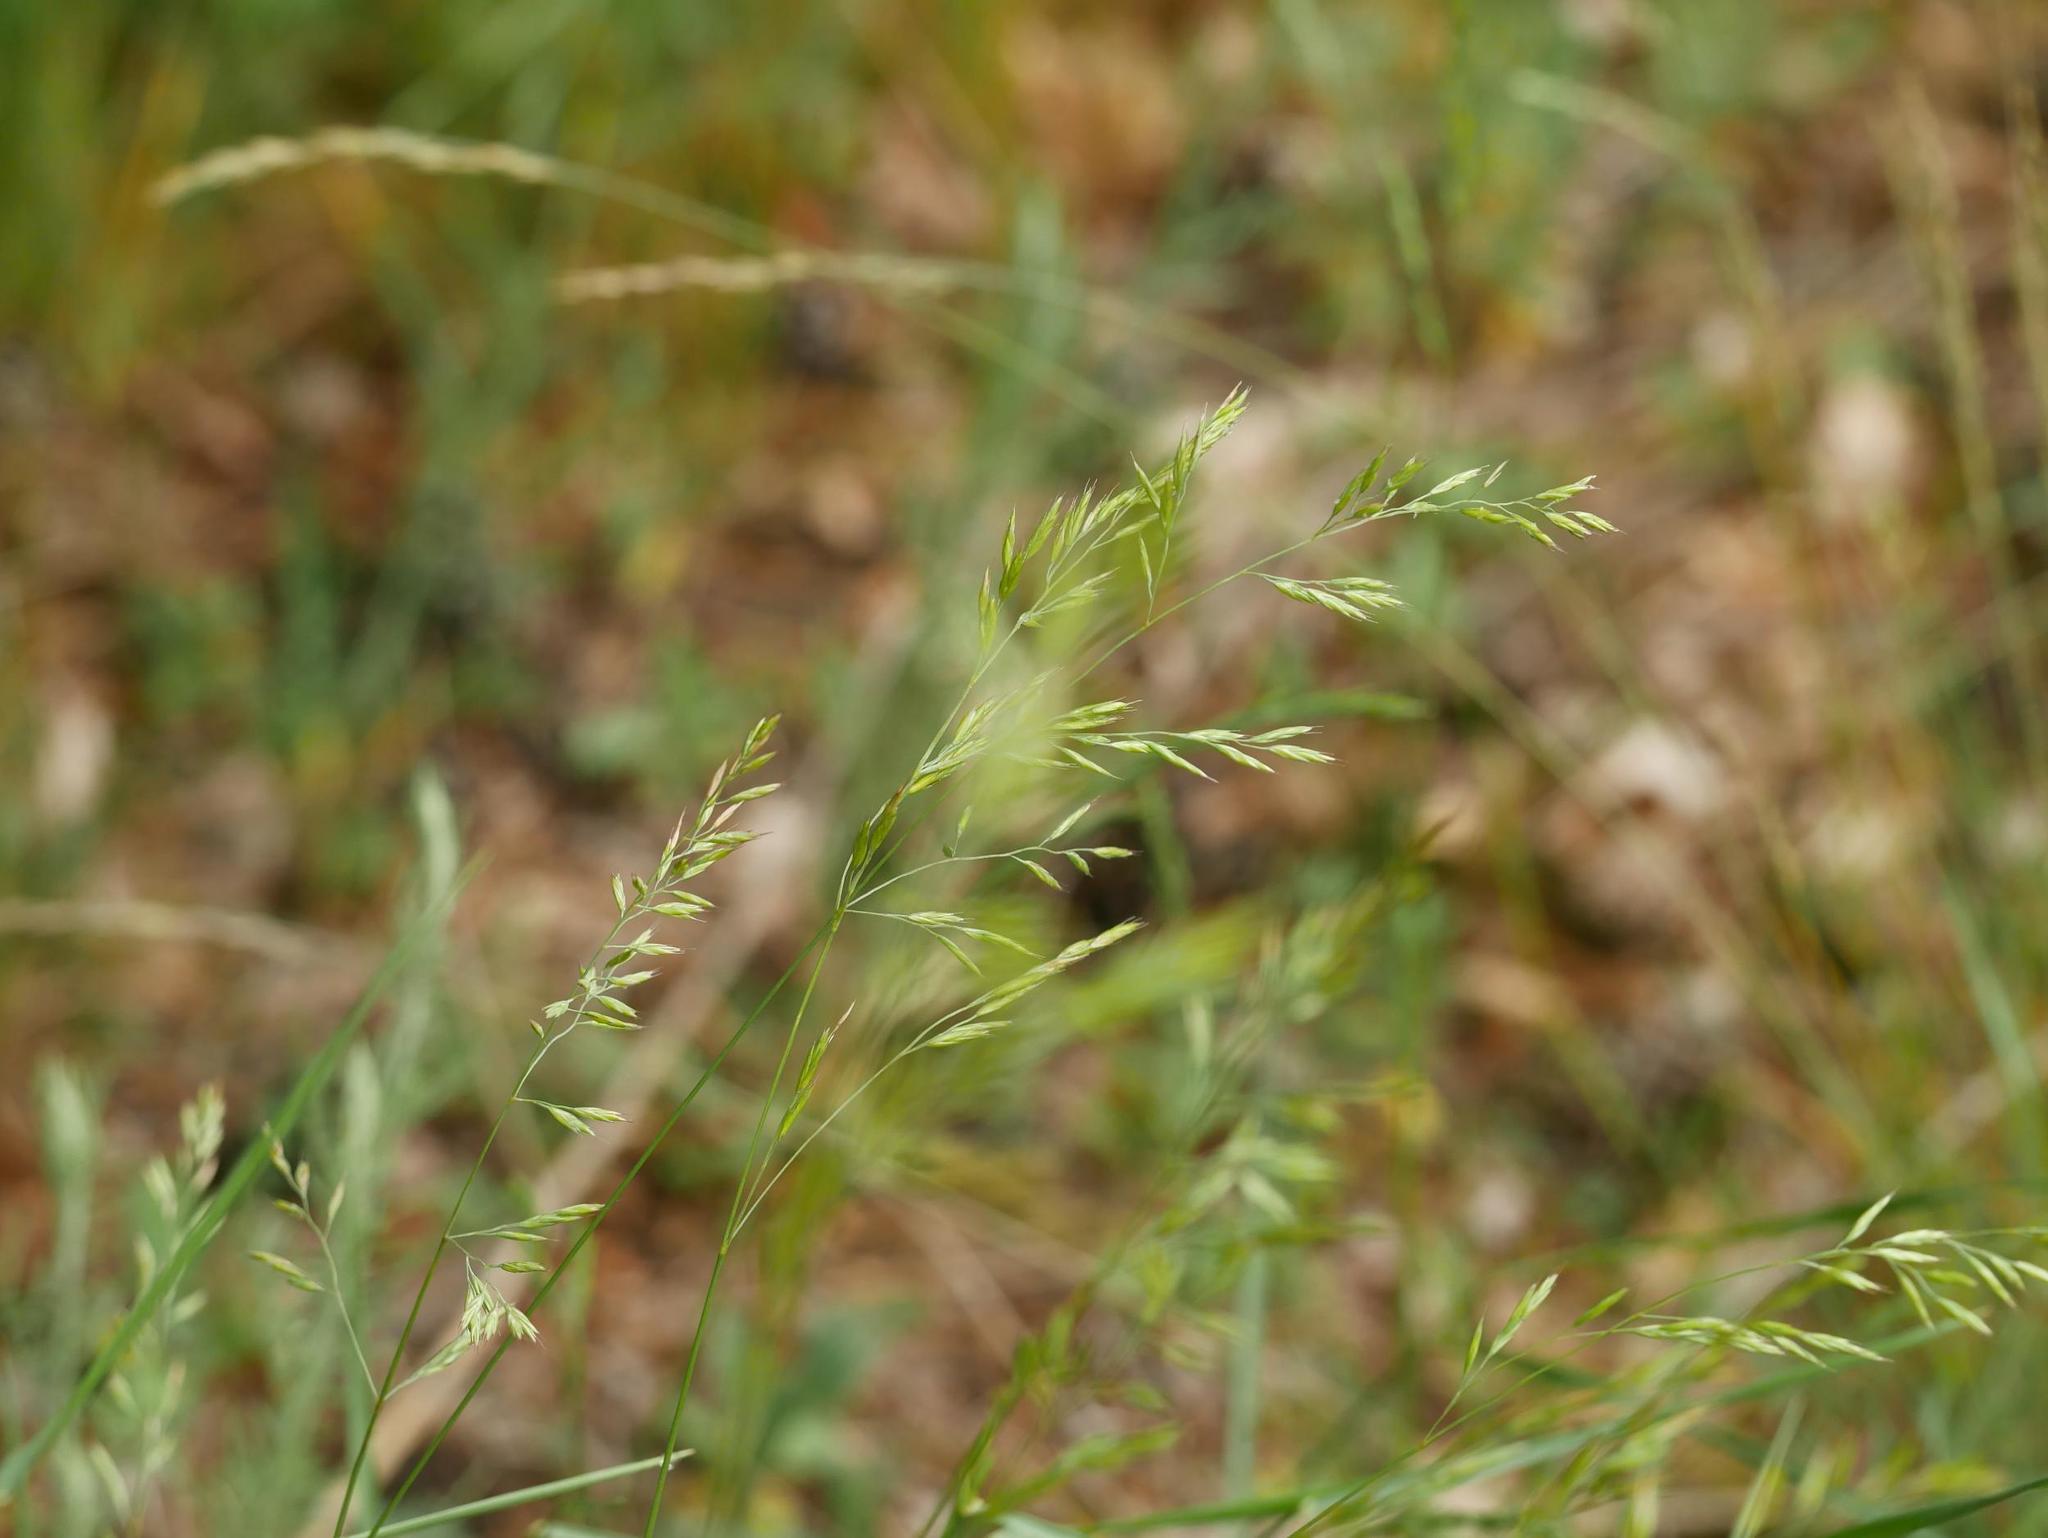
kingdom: Plantae
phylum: Tracheophyta
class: Liliopsida
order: Poales
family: Poaceae
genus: Festuca
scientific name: Festuca rubra
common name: Red fescue
